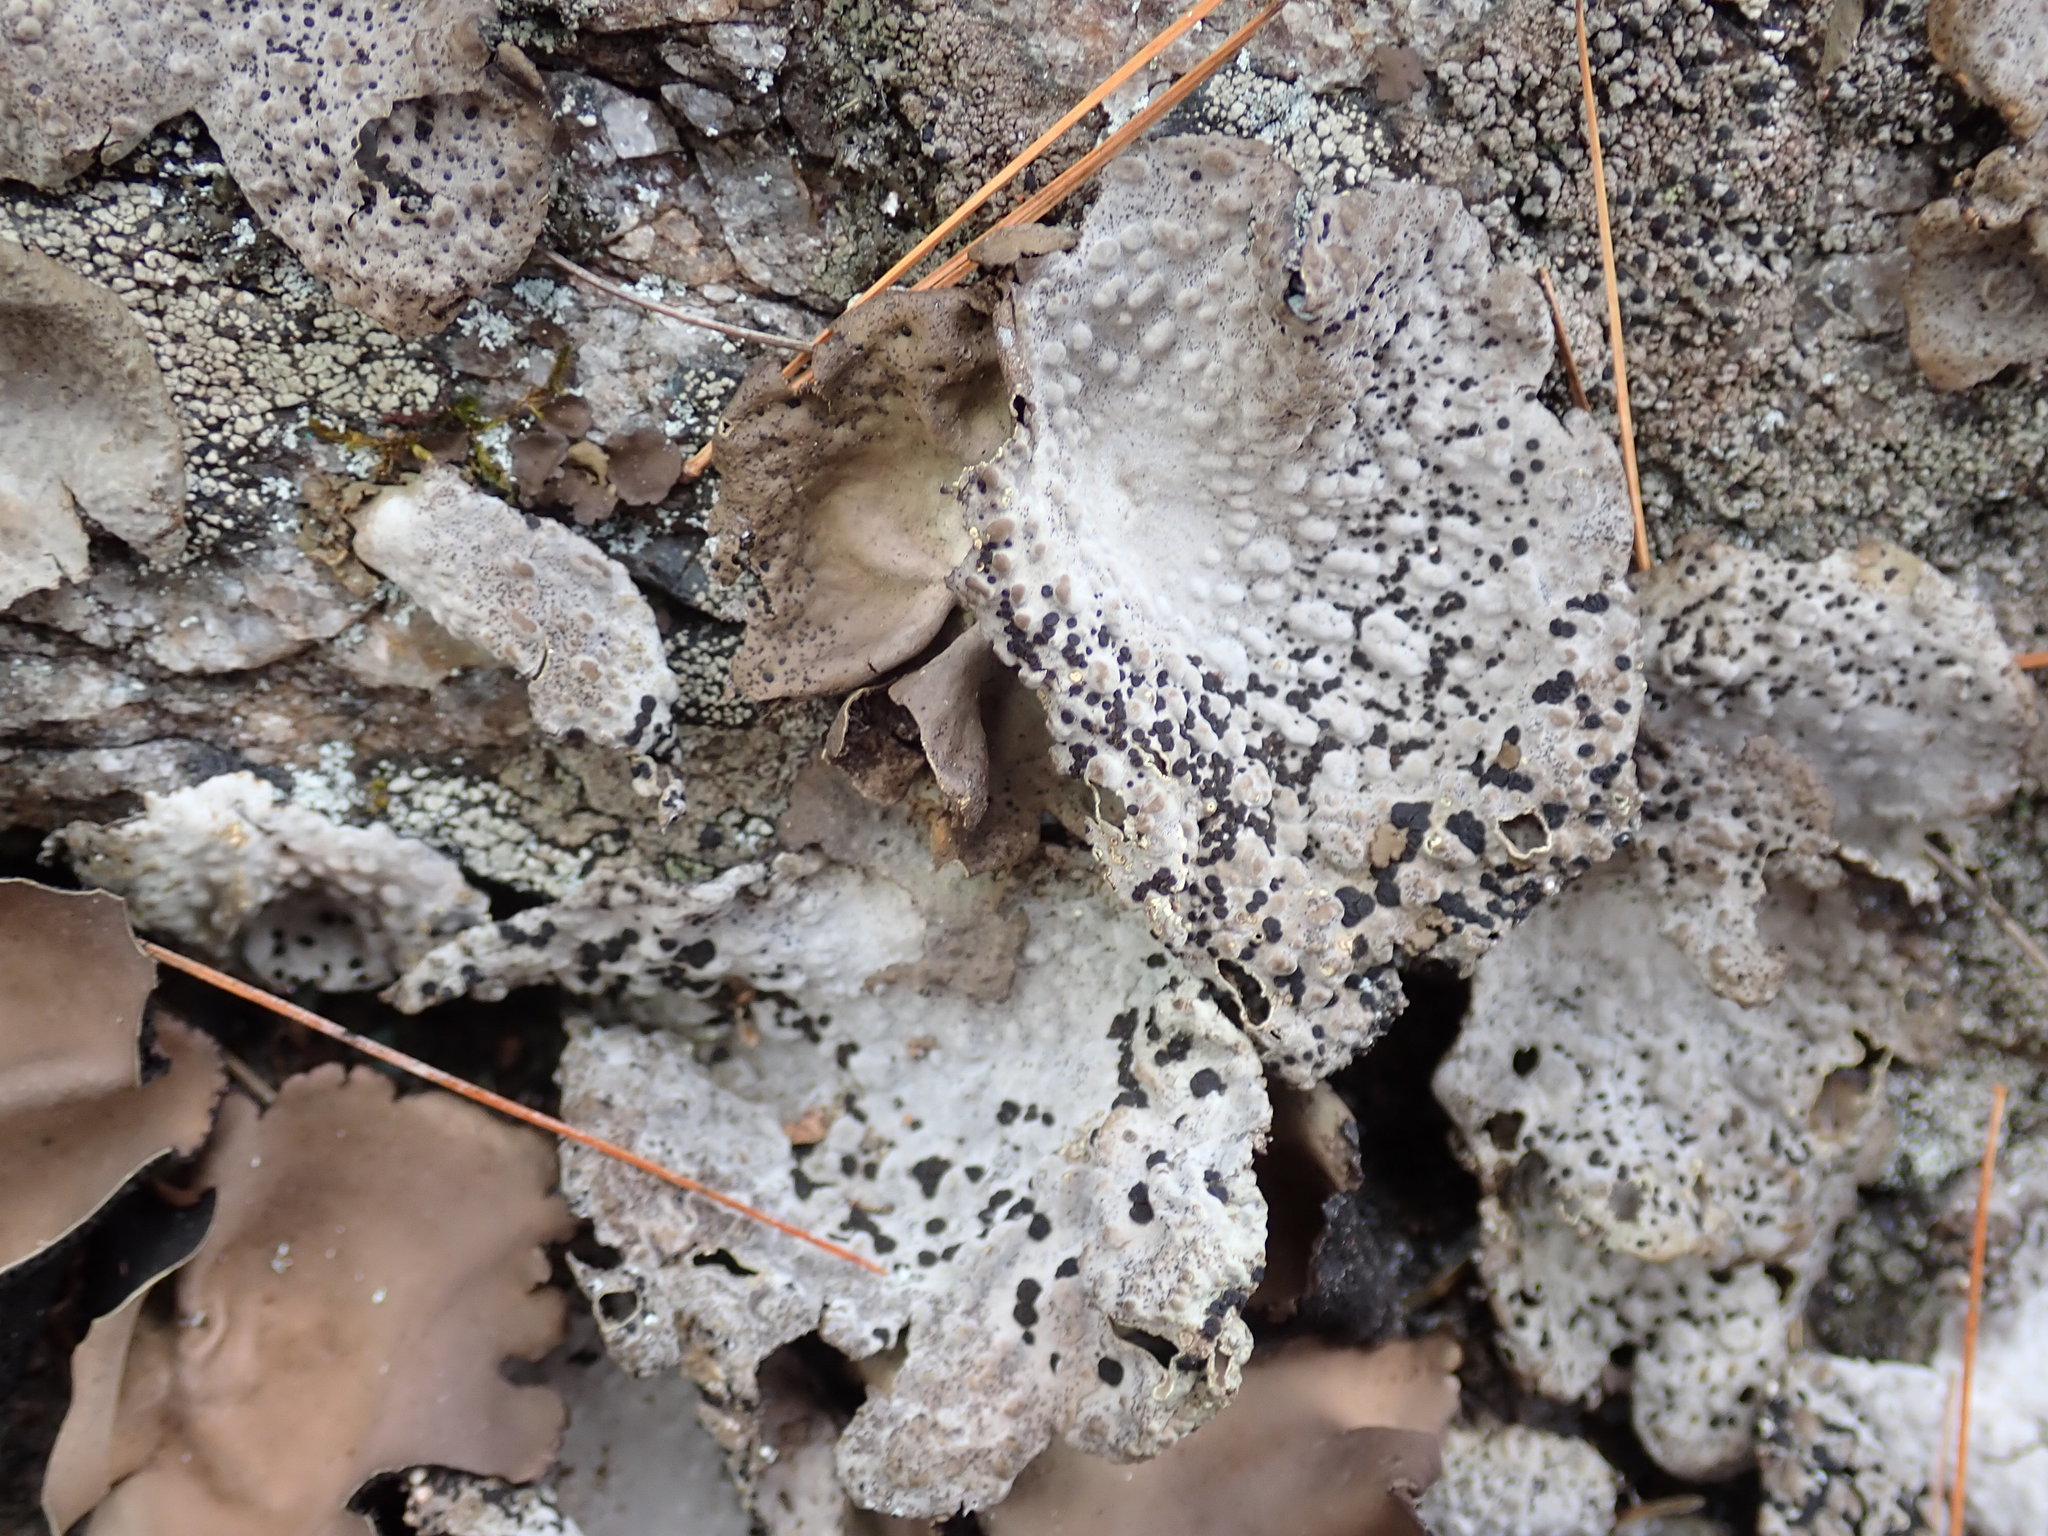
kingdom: Fungi
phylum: Ascomycota
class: Lecanoromycetes
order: Umbilicariales
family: Umbilicariaceae
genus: Lasallia
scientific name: Lasallia papulosa
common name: Common toadskin lichen
